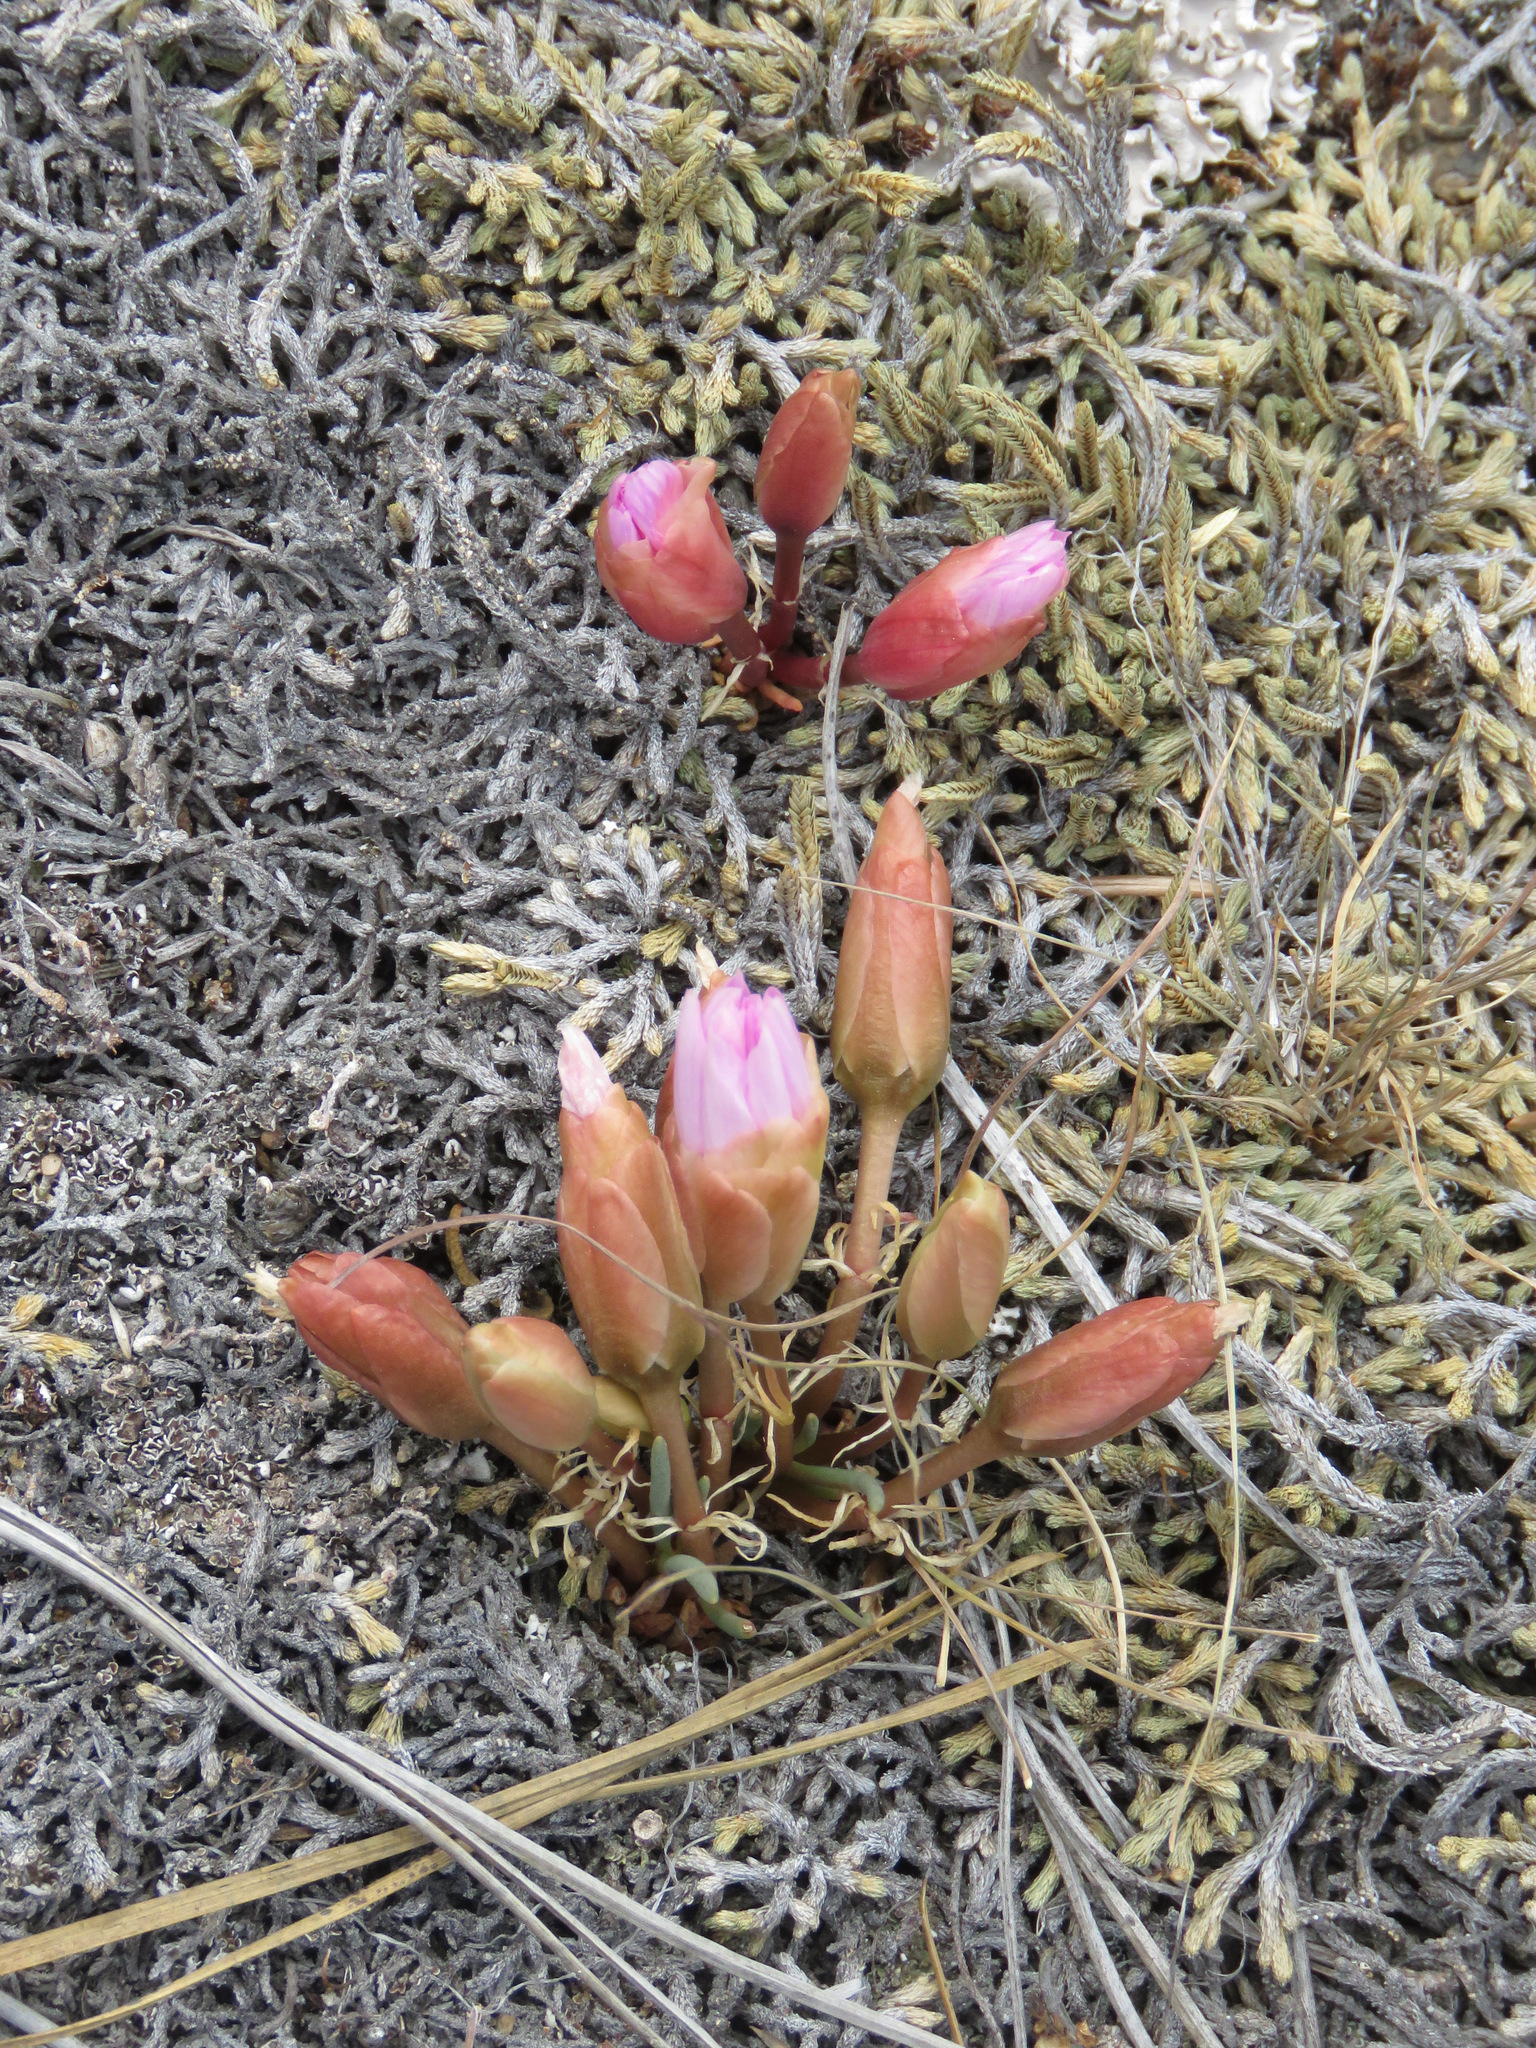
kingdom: Plantae
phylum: Tracheophyta
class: Magnoliopsida
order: Caryophyllales
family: Montiaceae
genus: Lewisia
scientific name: Lewisia rediviva
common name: Bitter-root
